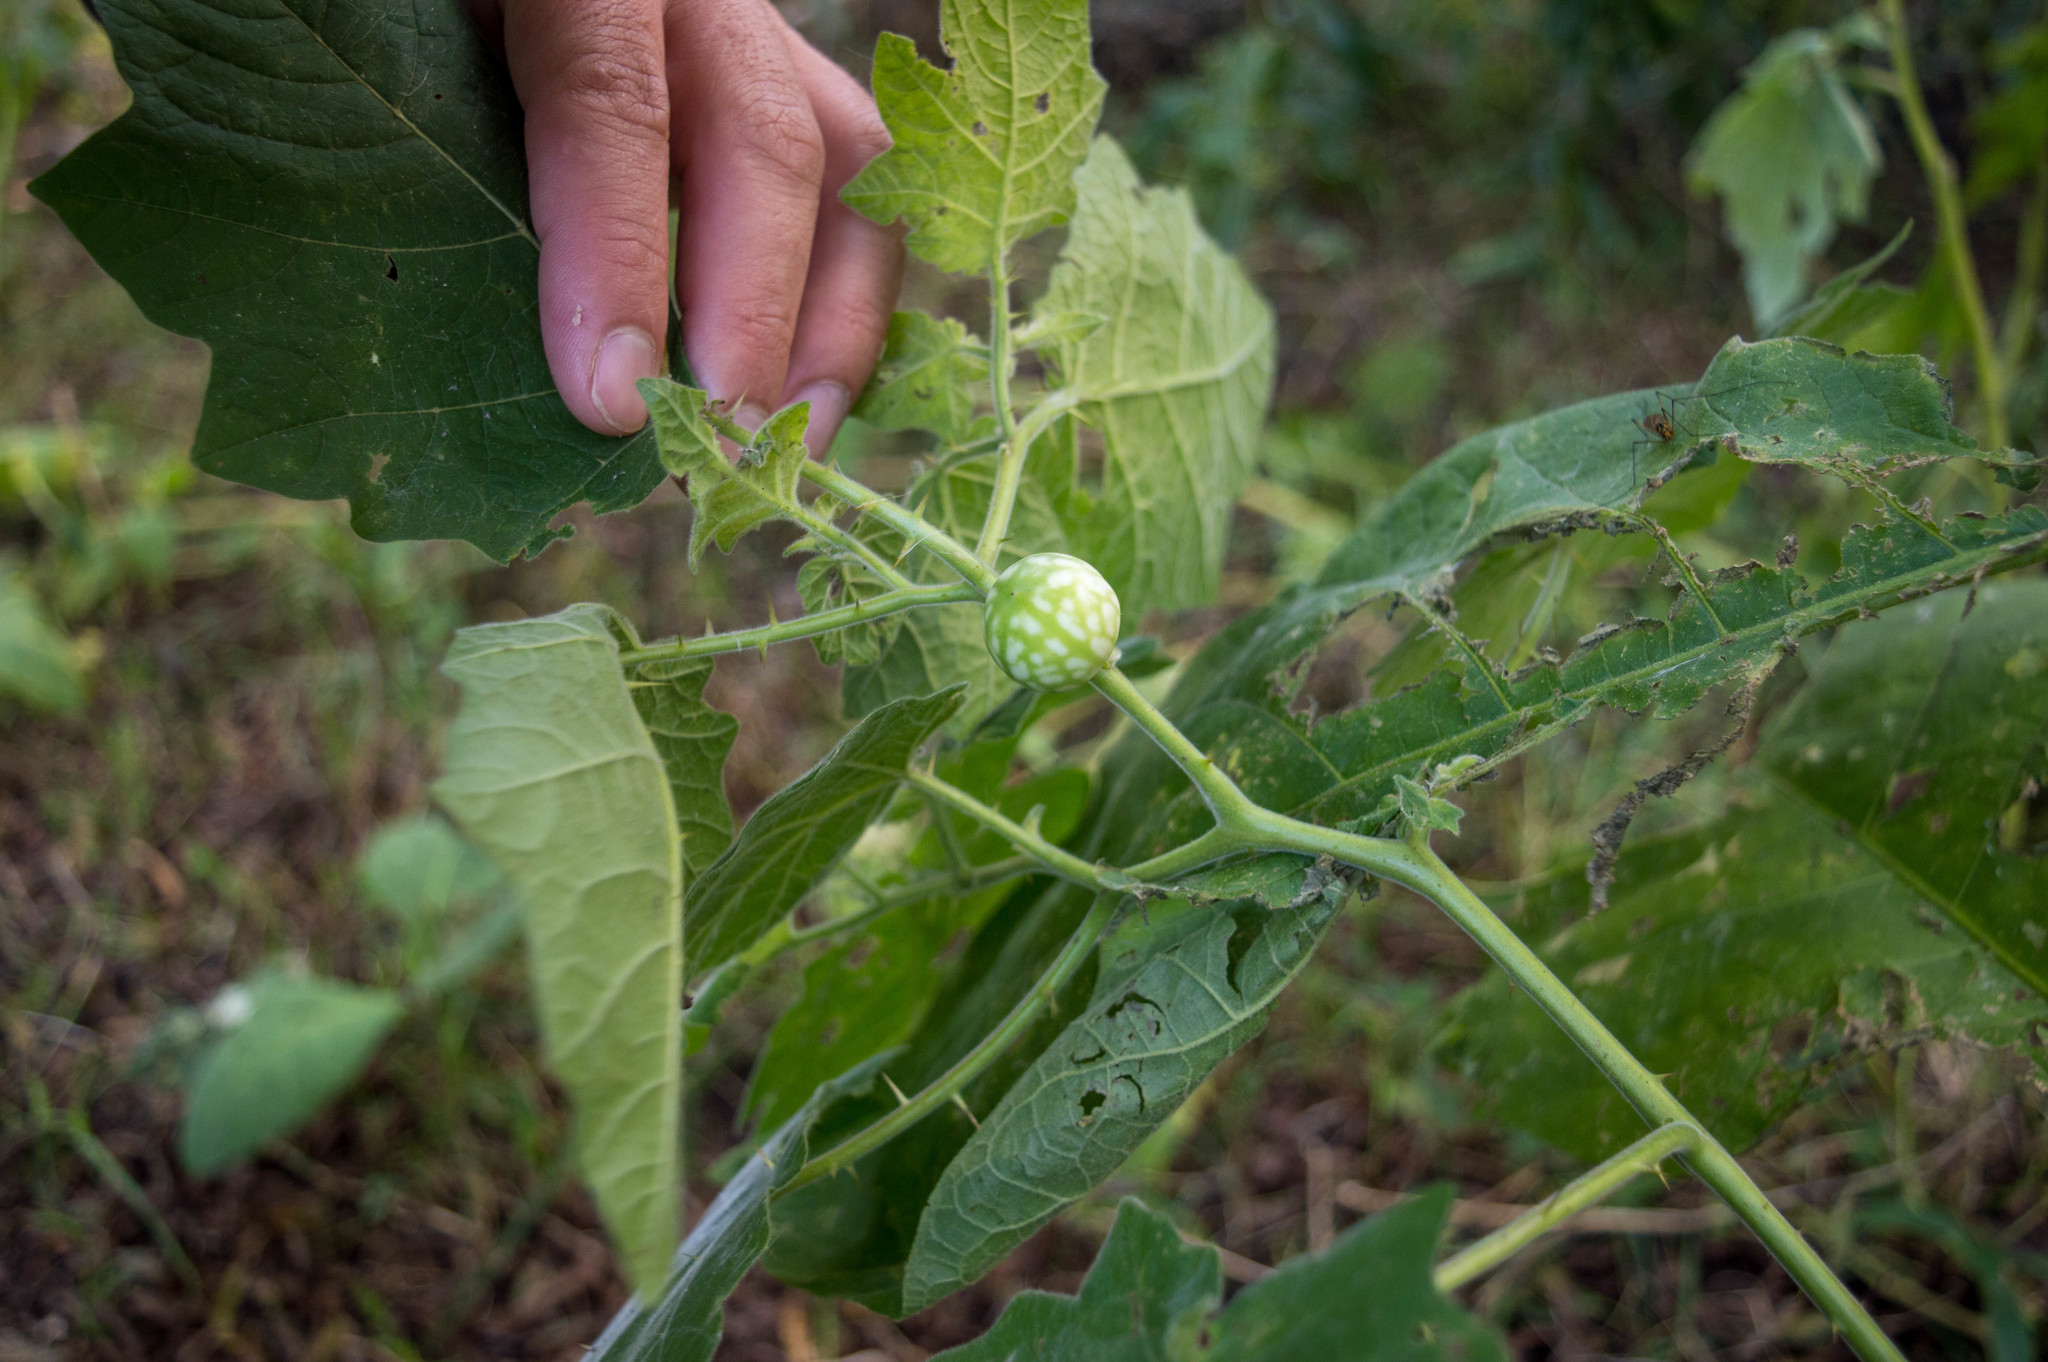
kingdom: Plantae
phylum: Tracheophyta
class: Magnoliopsida
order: Solanales
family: Solanaceae
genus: Solanum
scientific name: Solanum viarum
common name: Tropical soda apple
